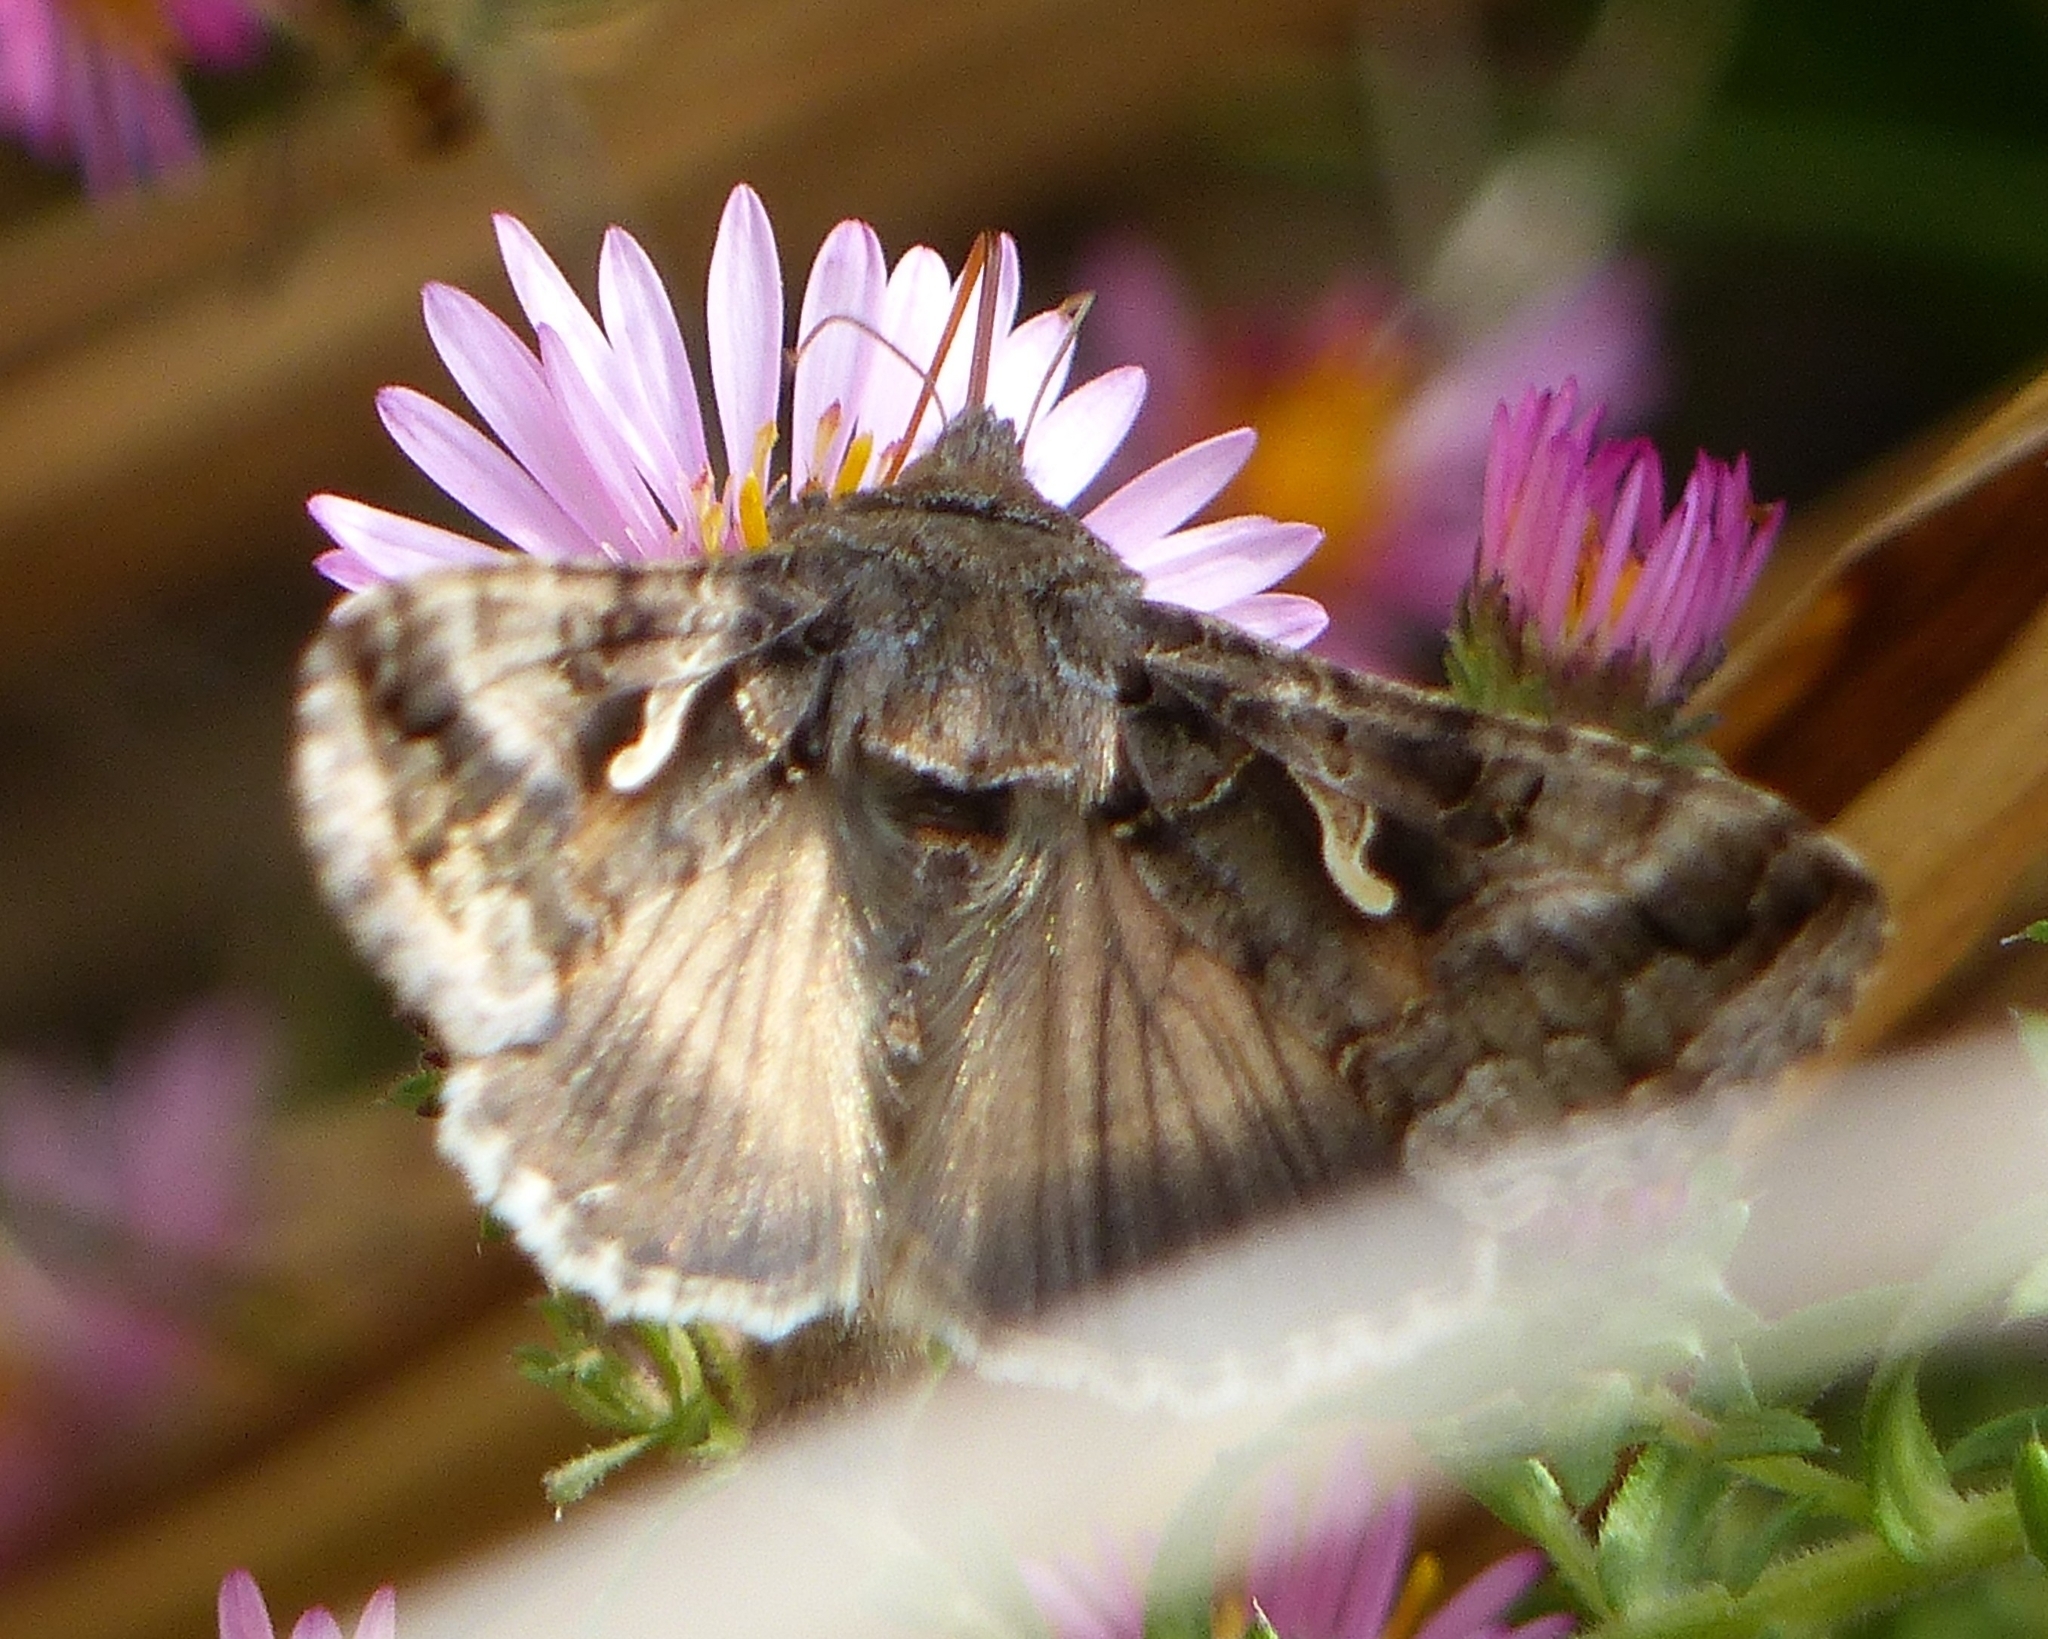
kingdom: Animalia
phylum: Arthropoda
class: Insecta
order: Lepidoptera
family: Noctuidae
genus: Autographa
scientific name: Autographa gamma
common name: Silver y
